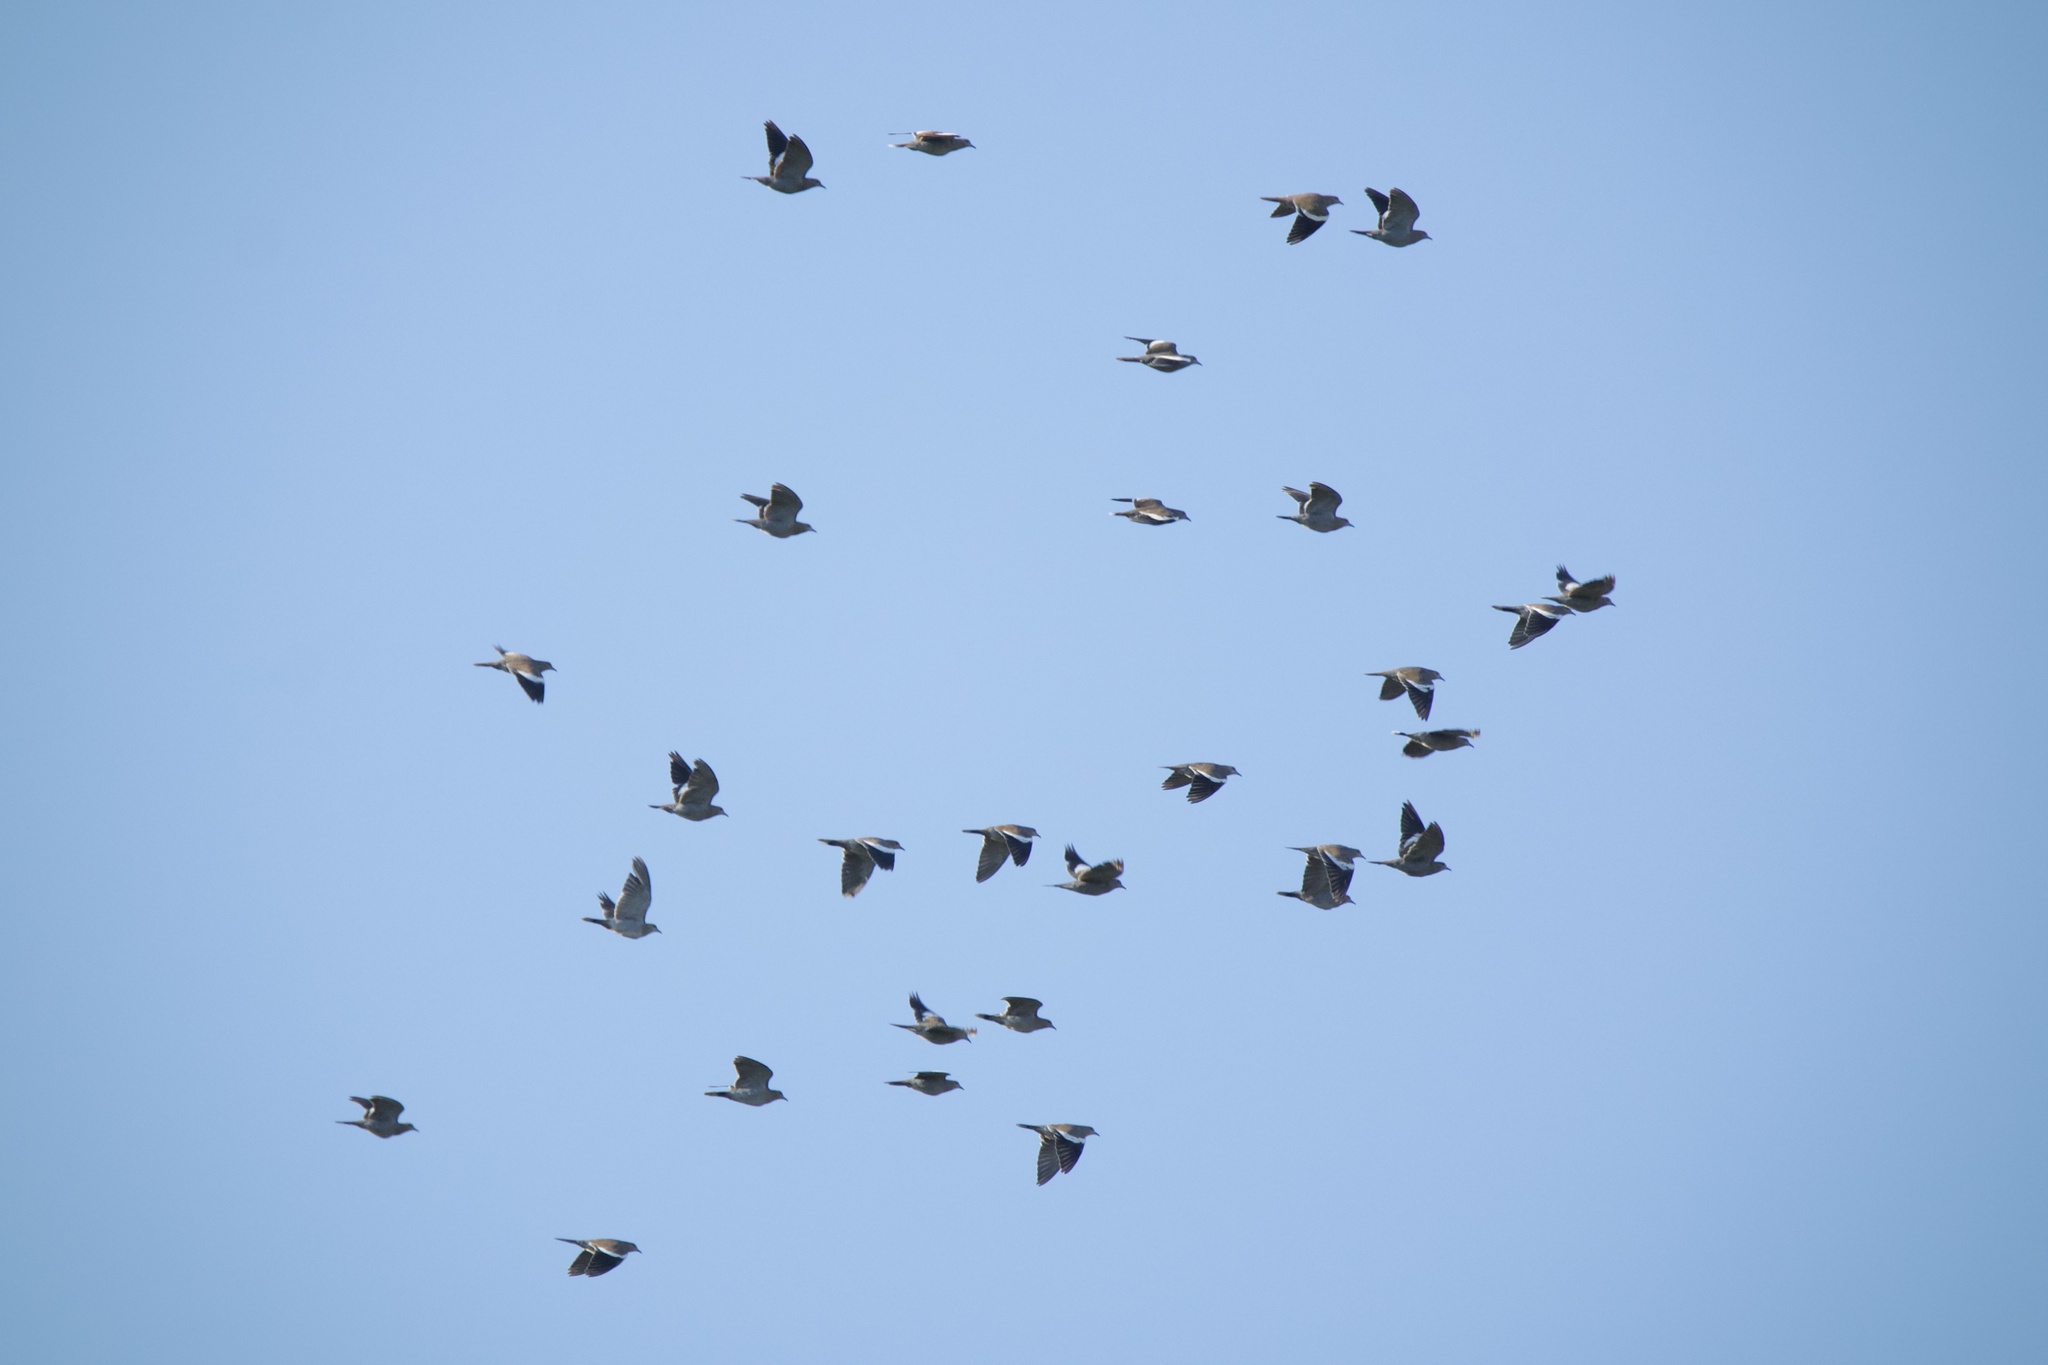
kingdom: Animalia
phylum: Chordata
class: Aves
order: Columbiformes
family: Columbidae
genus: Zenaida
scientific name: Zenaida asiatica
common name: White-winged dove
